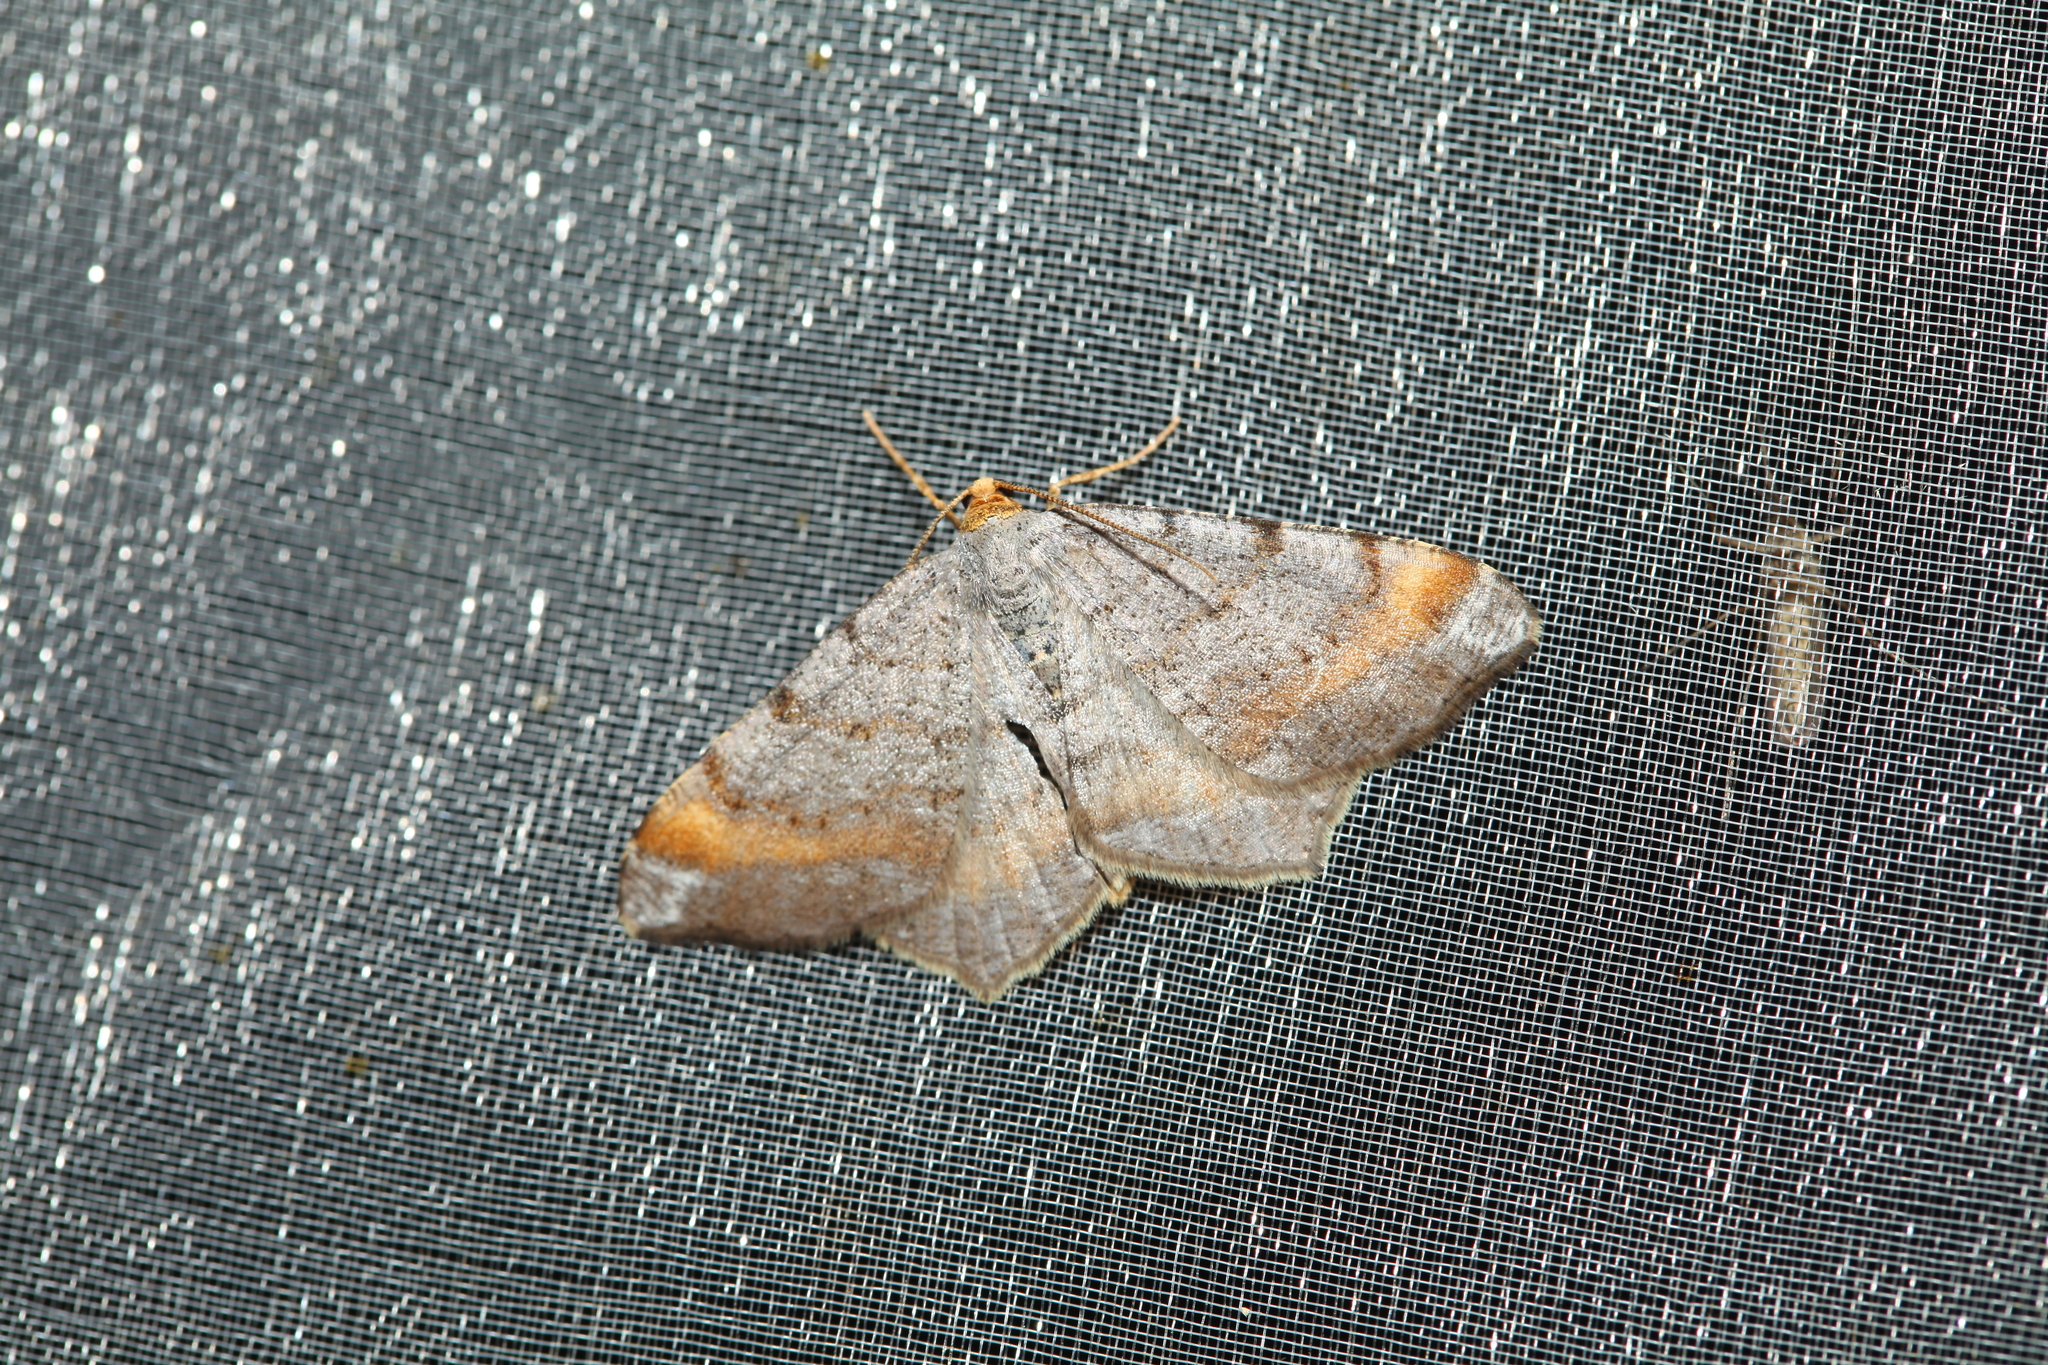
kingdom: Animalia
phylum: Arthropoda
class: Insecta
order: Lepidoptera
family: Geometridae
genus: Macaria
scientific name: Macaria liturata
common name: Tawny-barred angle
